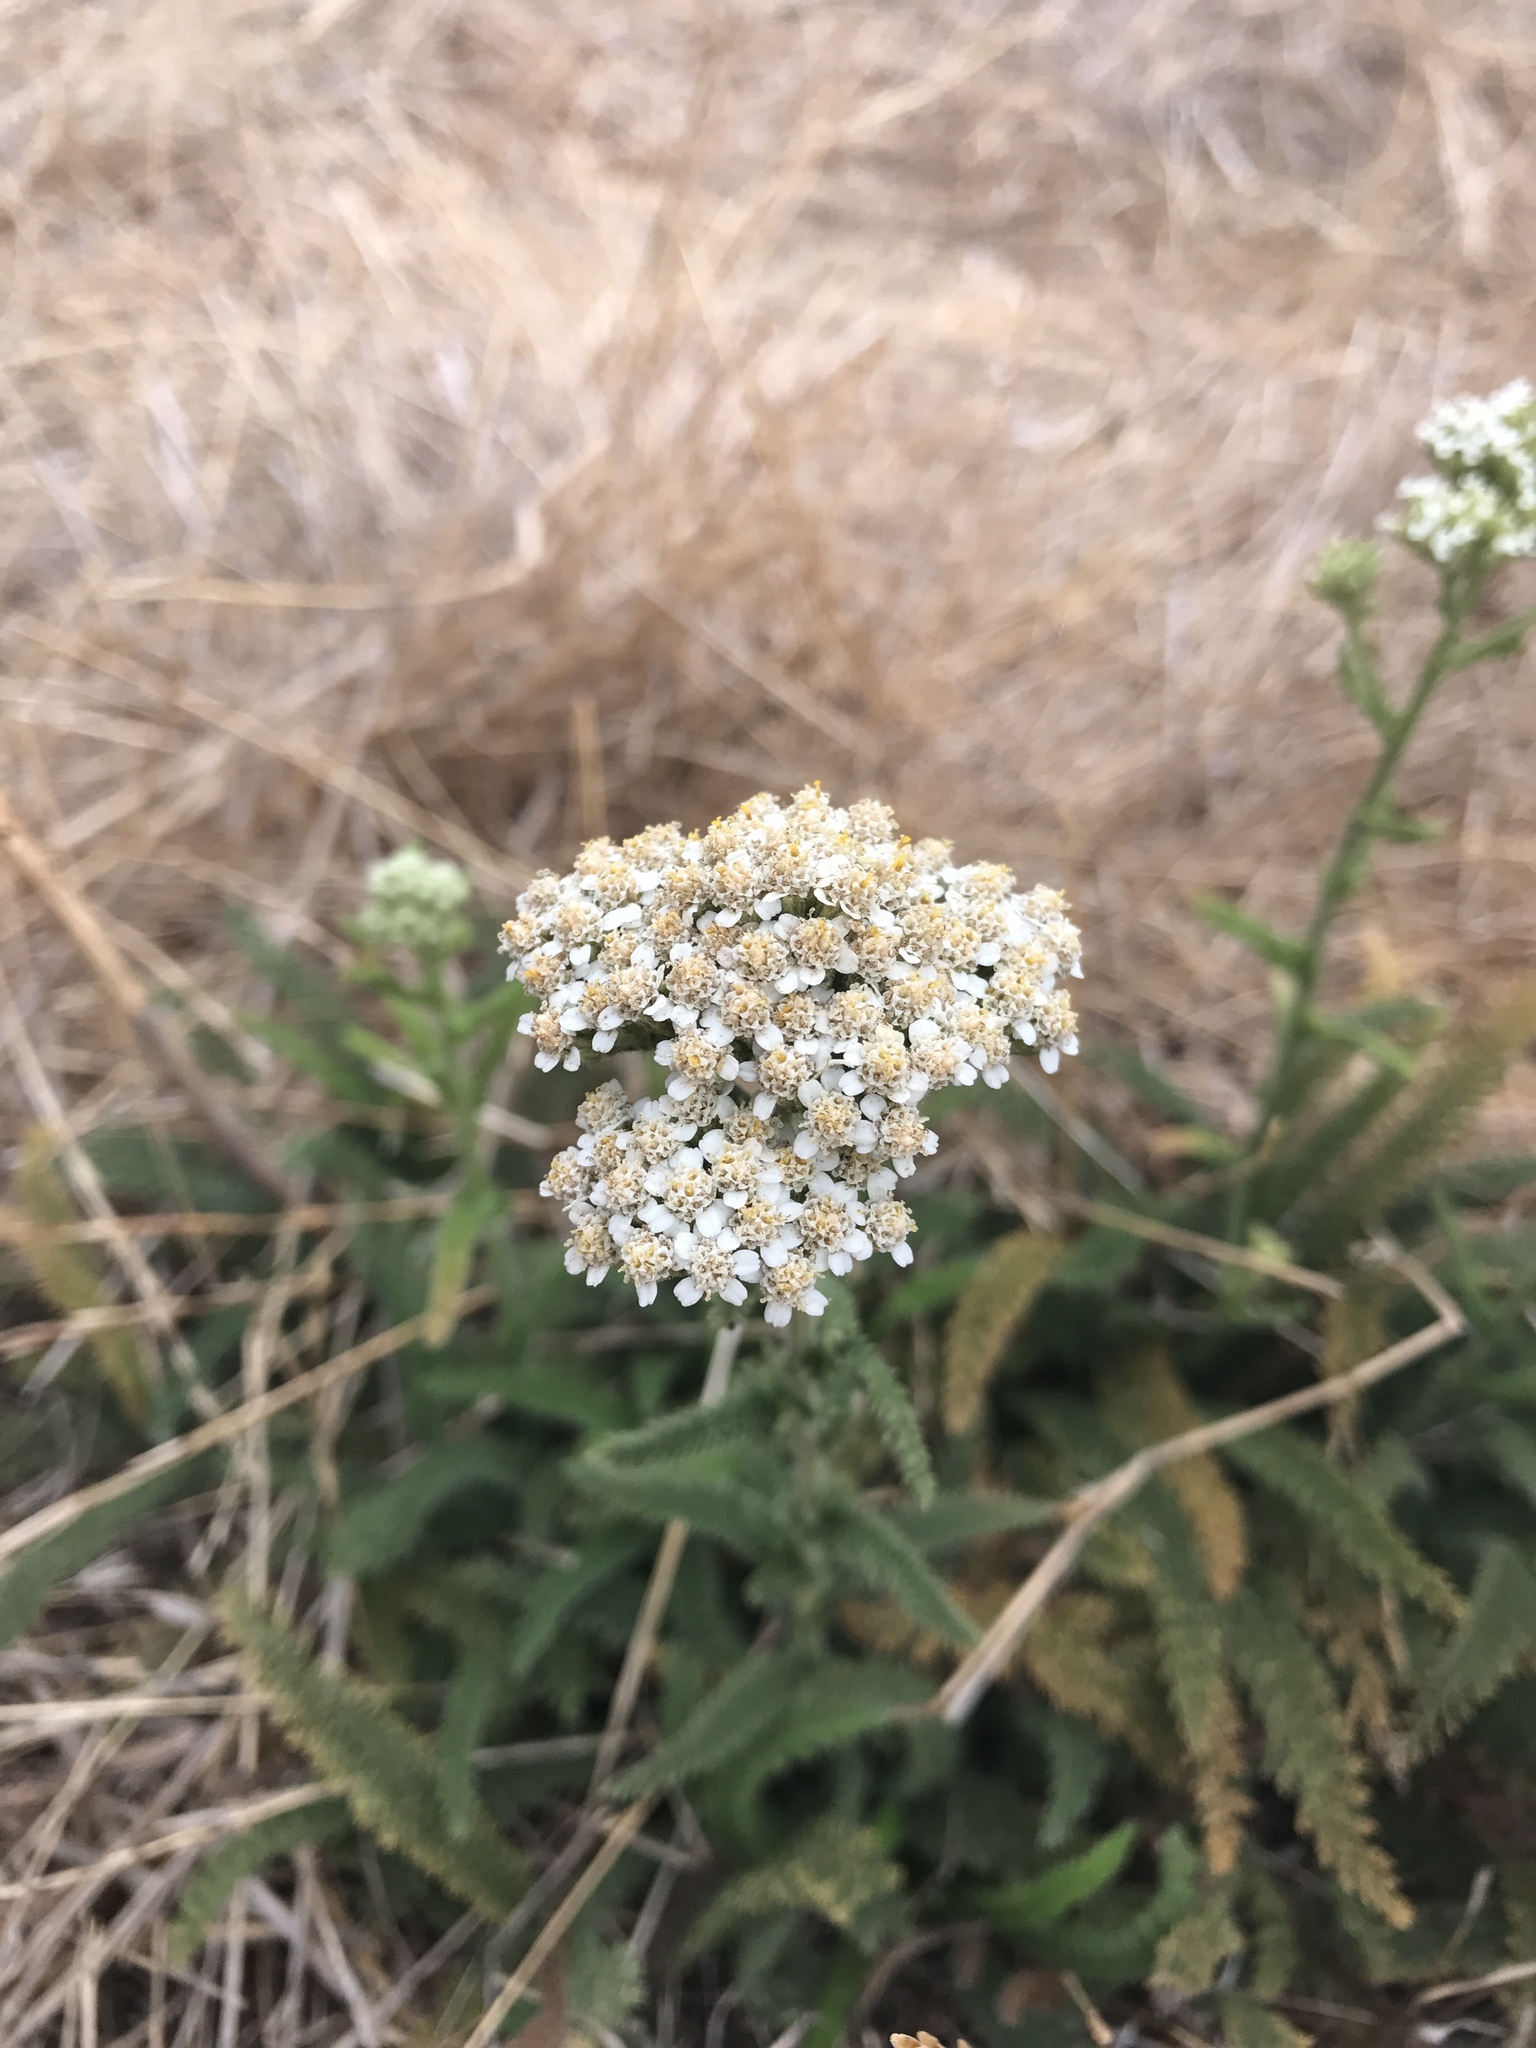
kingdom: Plantae
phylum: Tracheophyta
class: Magnoliopsida
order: Asterales
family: Asteraceae
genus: Achillea
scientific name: Achillea millefolium
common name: Yarrow
